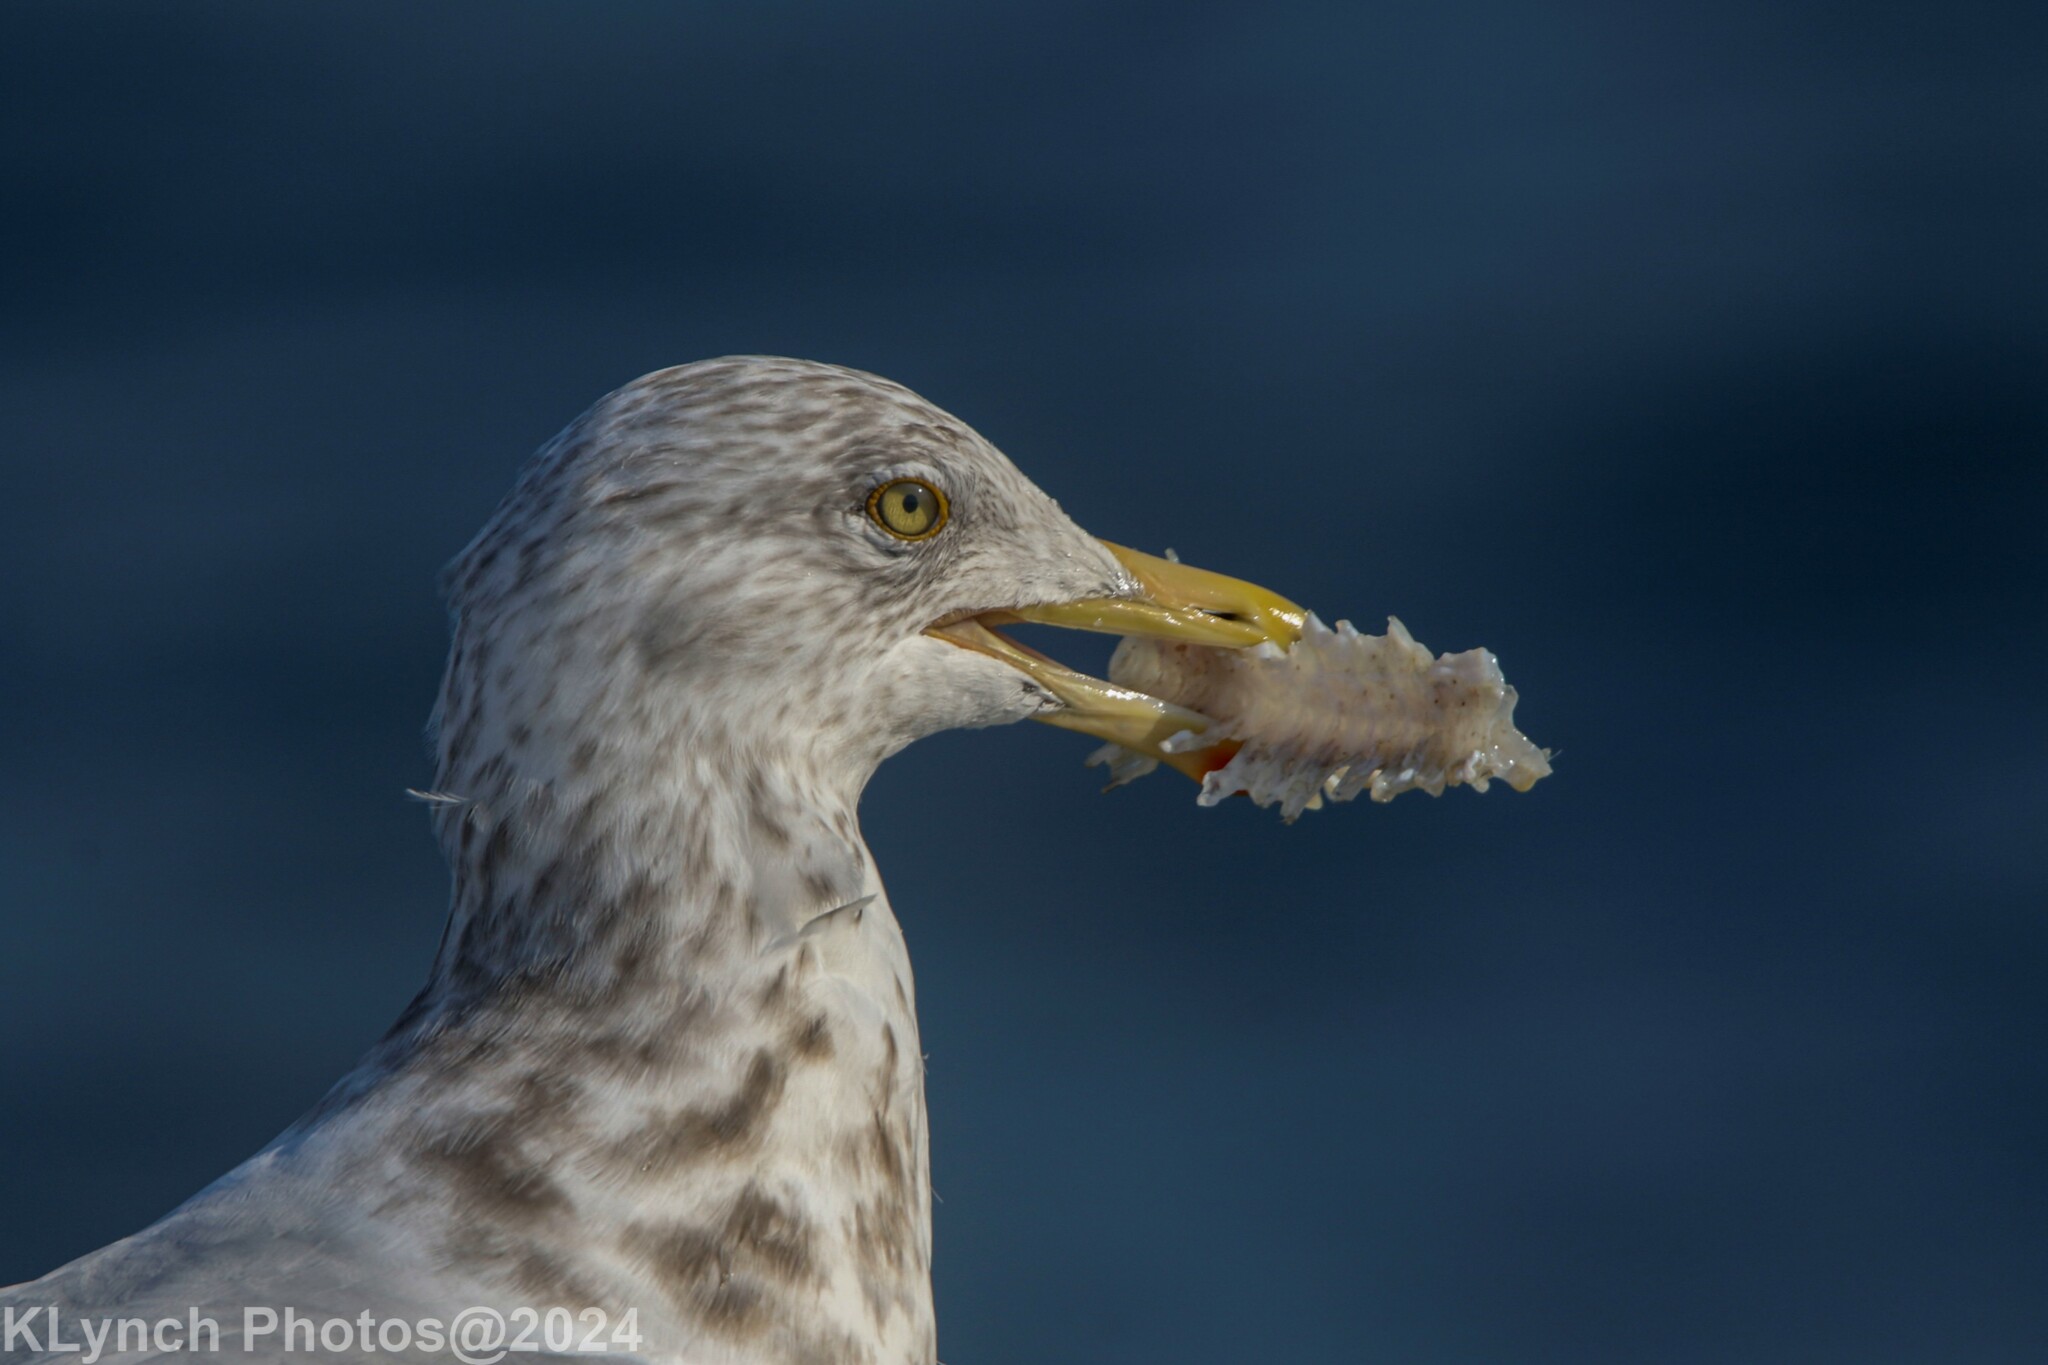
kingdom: Animalia
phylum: Chordata
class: Aves
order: Charadriiformes
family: Laridae
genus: Larus
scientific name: Larus argentatus
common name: Herring gull
